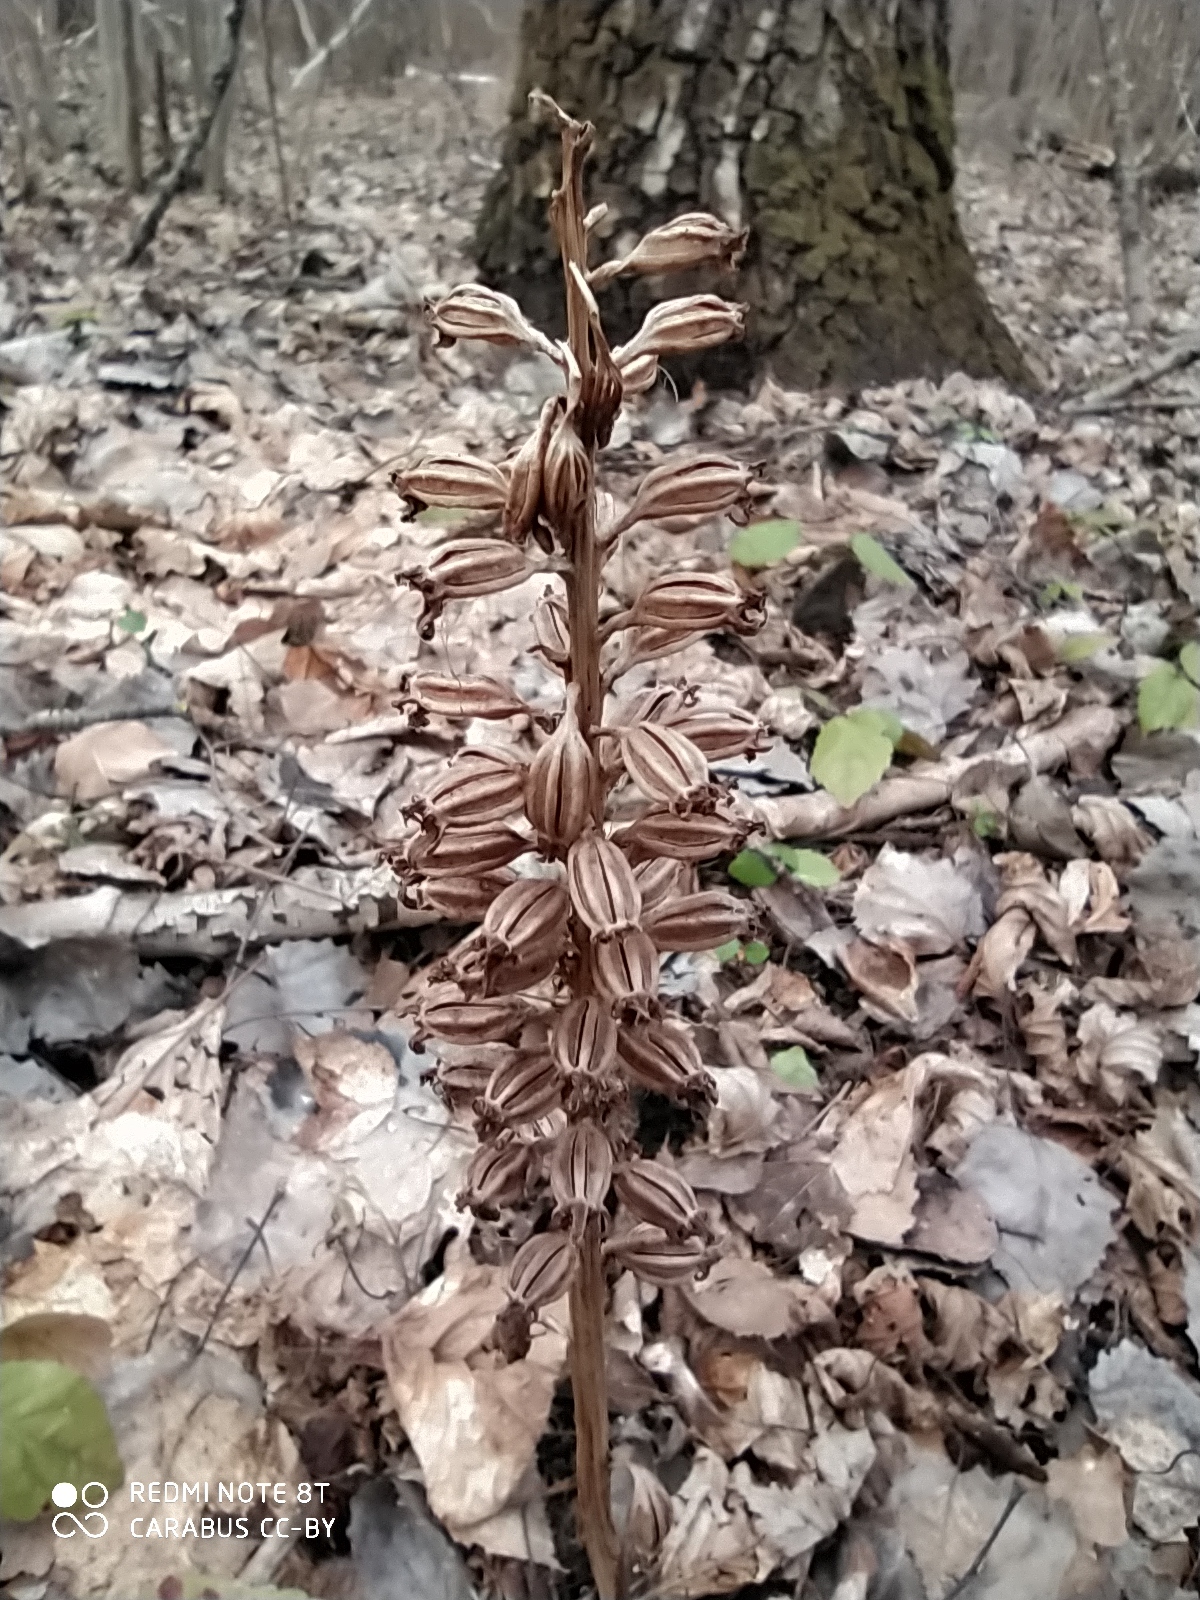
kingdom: Plantae
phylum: Tracheophyta
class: Liliopsida
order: Asparagales
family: Orchidaceae
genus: Neottia
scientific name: Neottia nidus-avis
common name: Bird's-nest orchid
